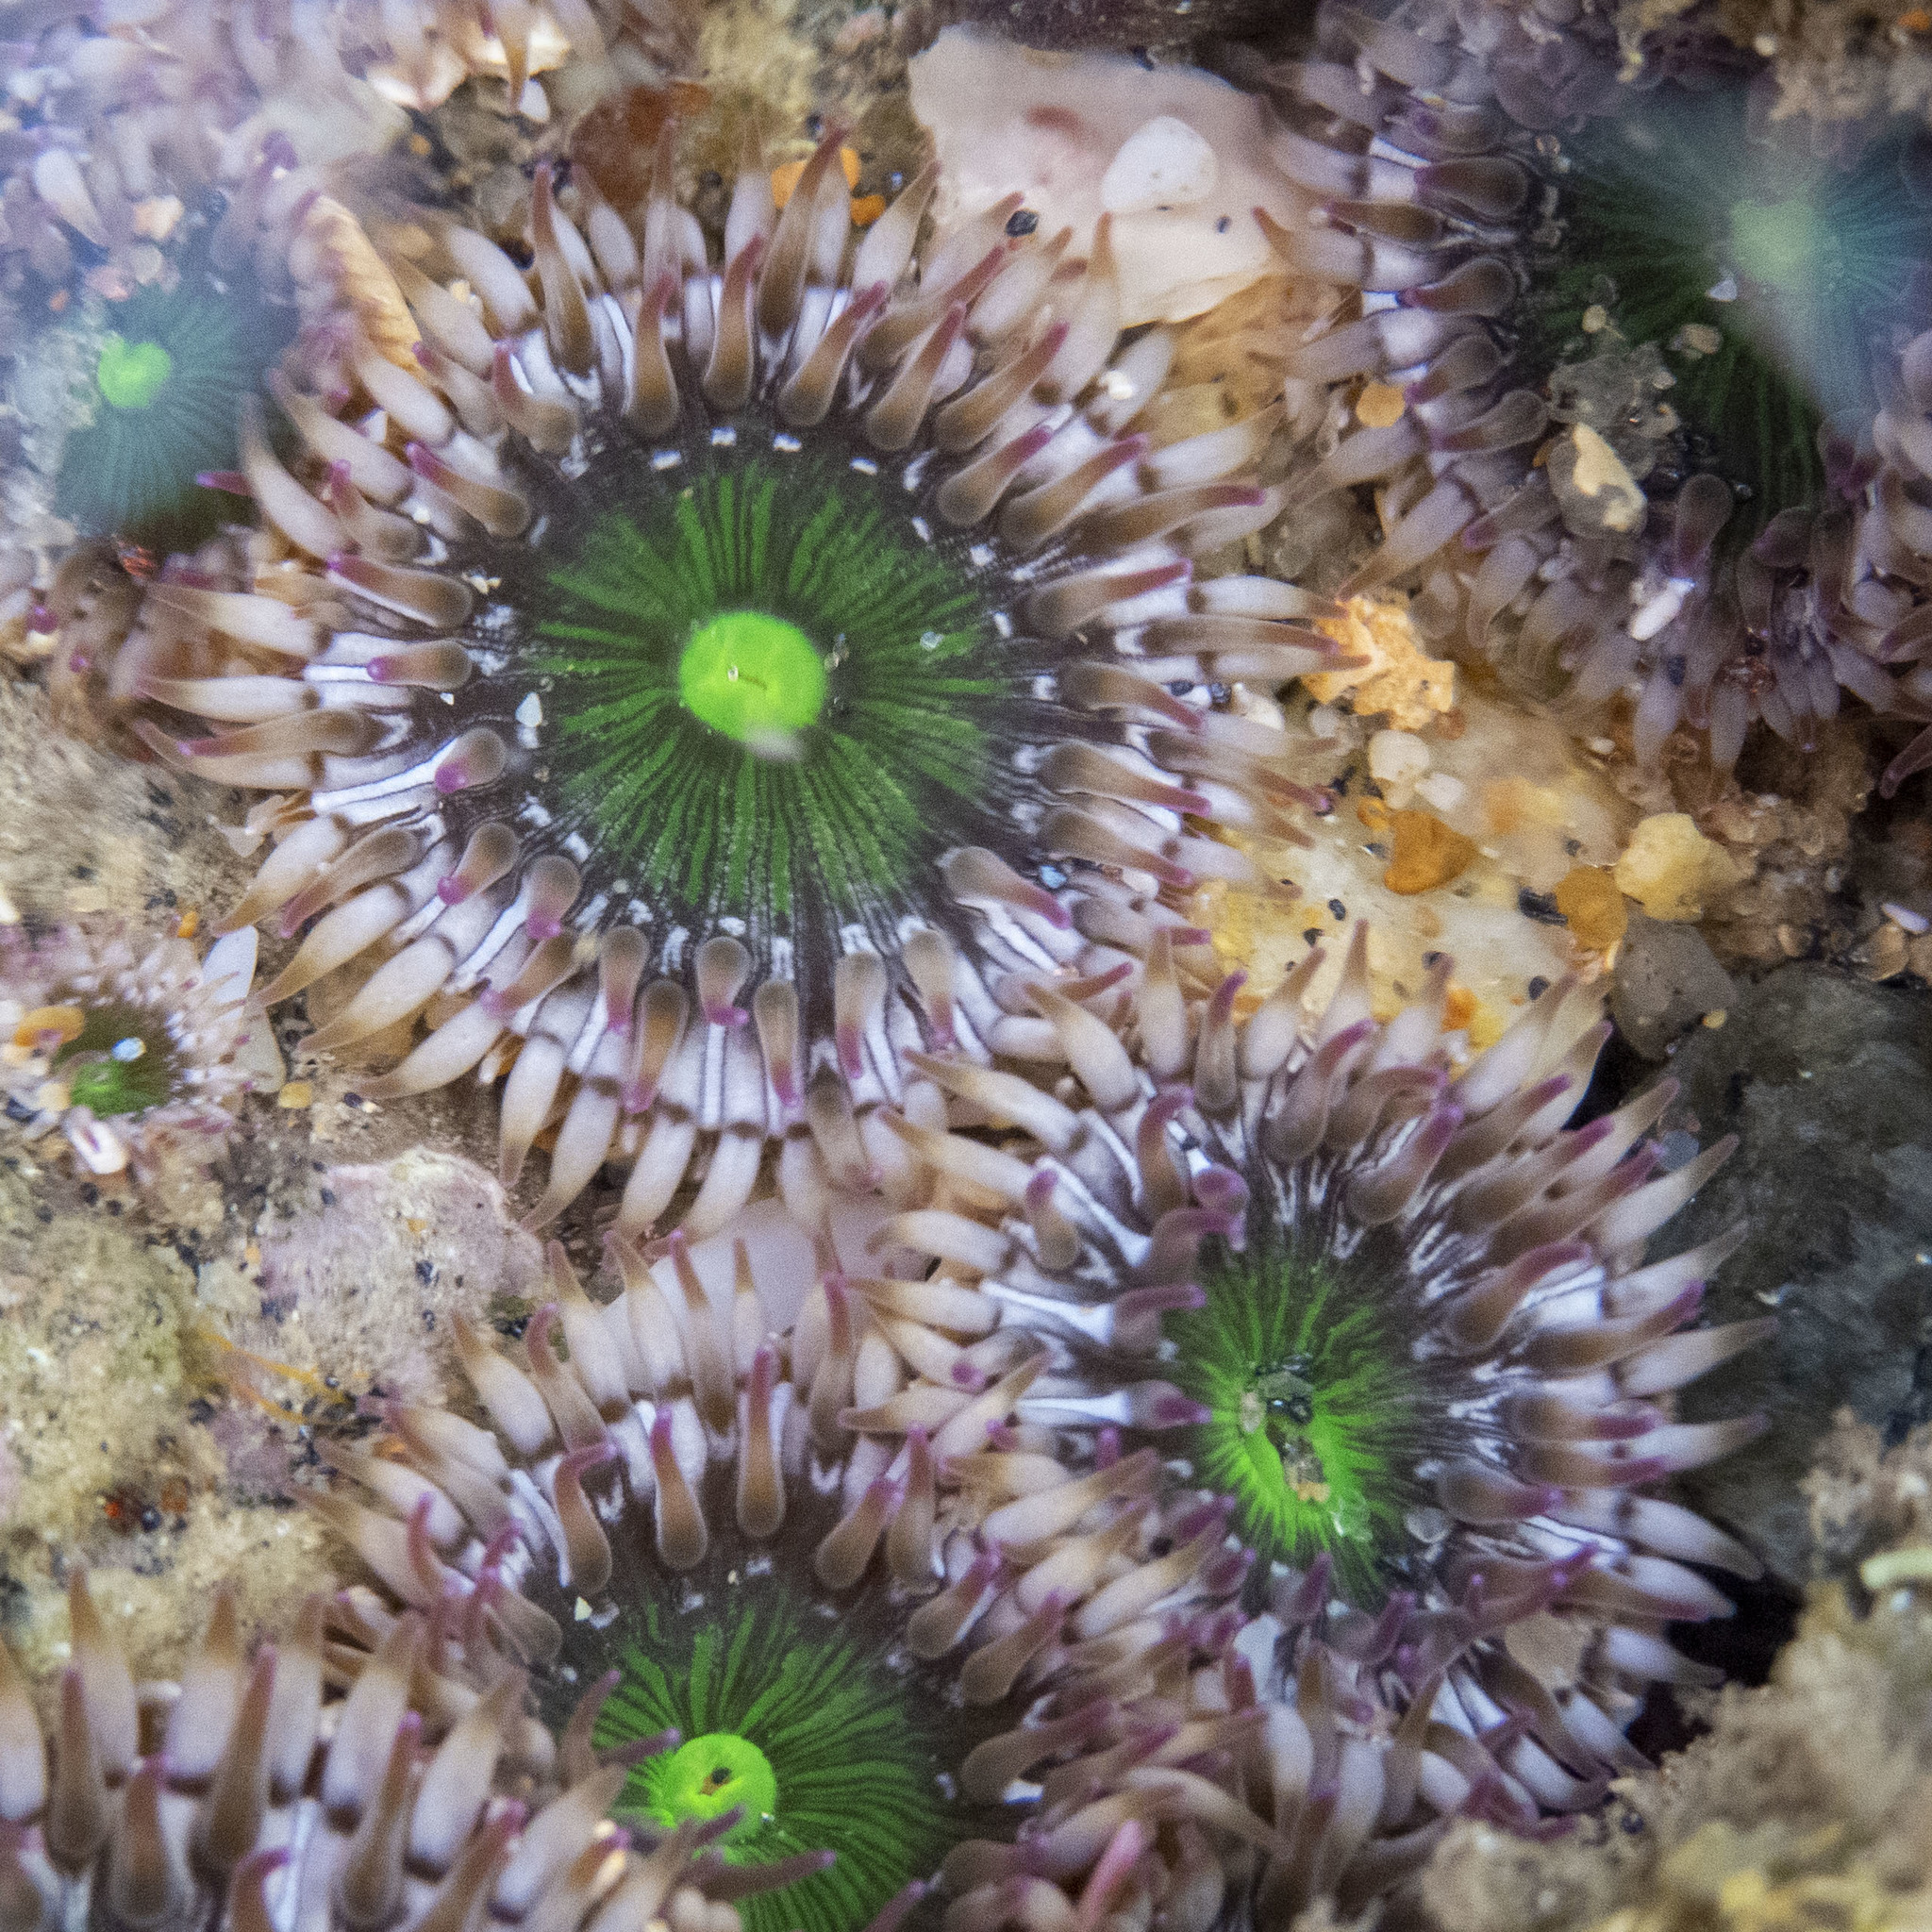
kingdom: Animalia
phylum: Cnidaria
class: Anthozoa
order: Actiniaria
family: Actiniidae
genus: Gyractis
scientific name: Gyractis sesere
